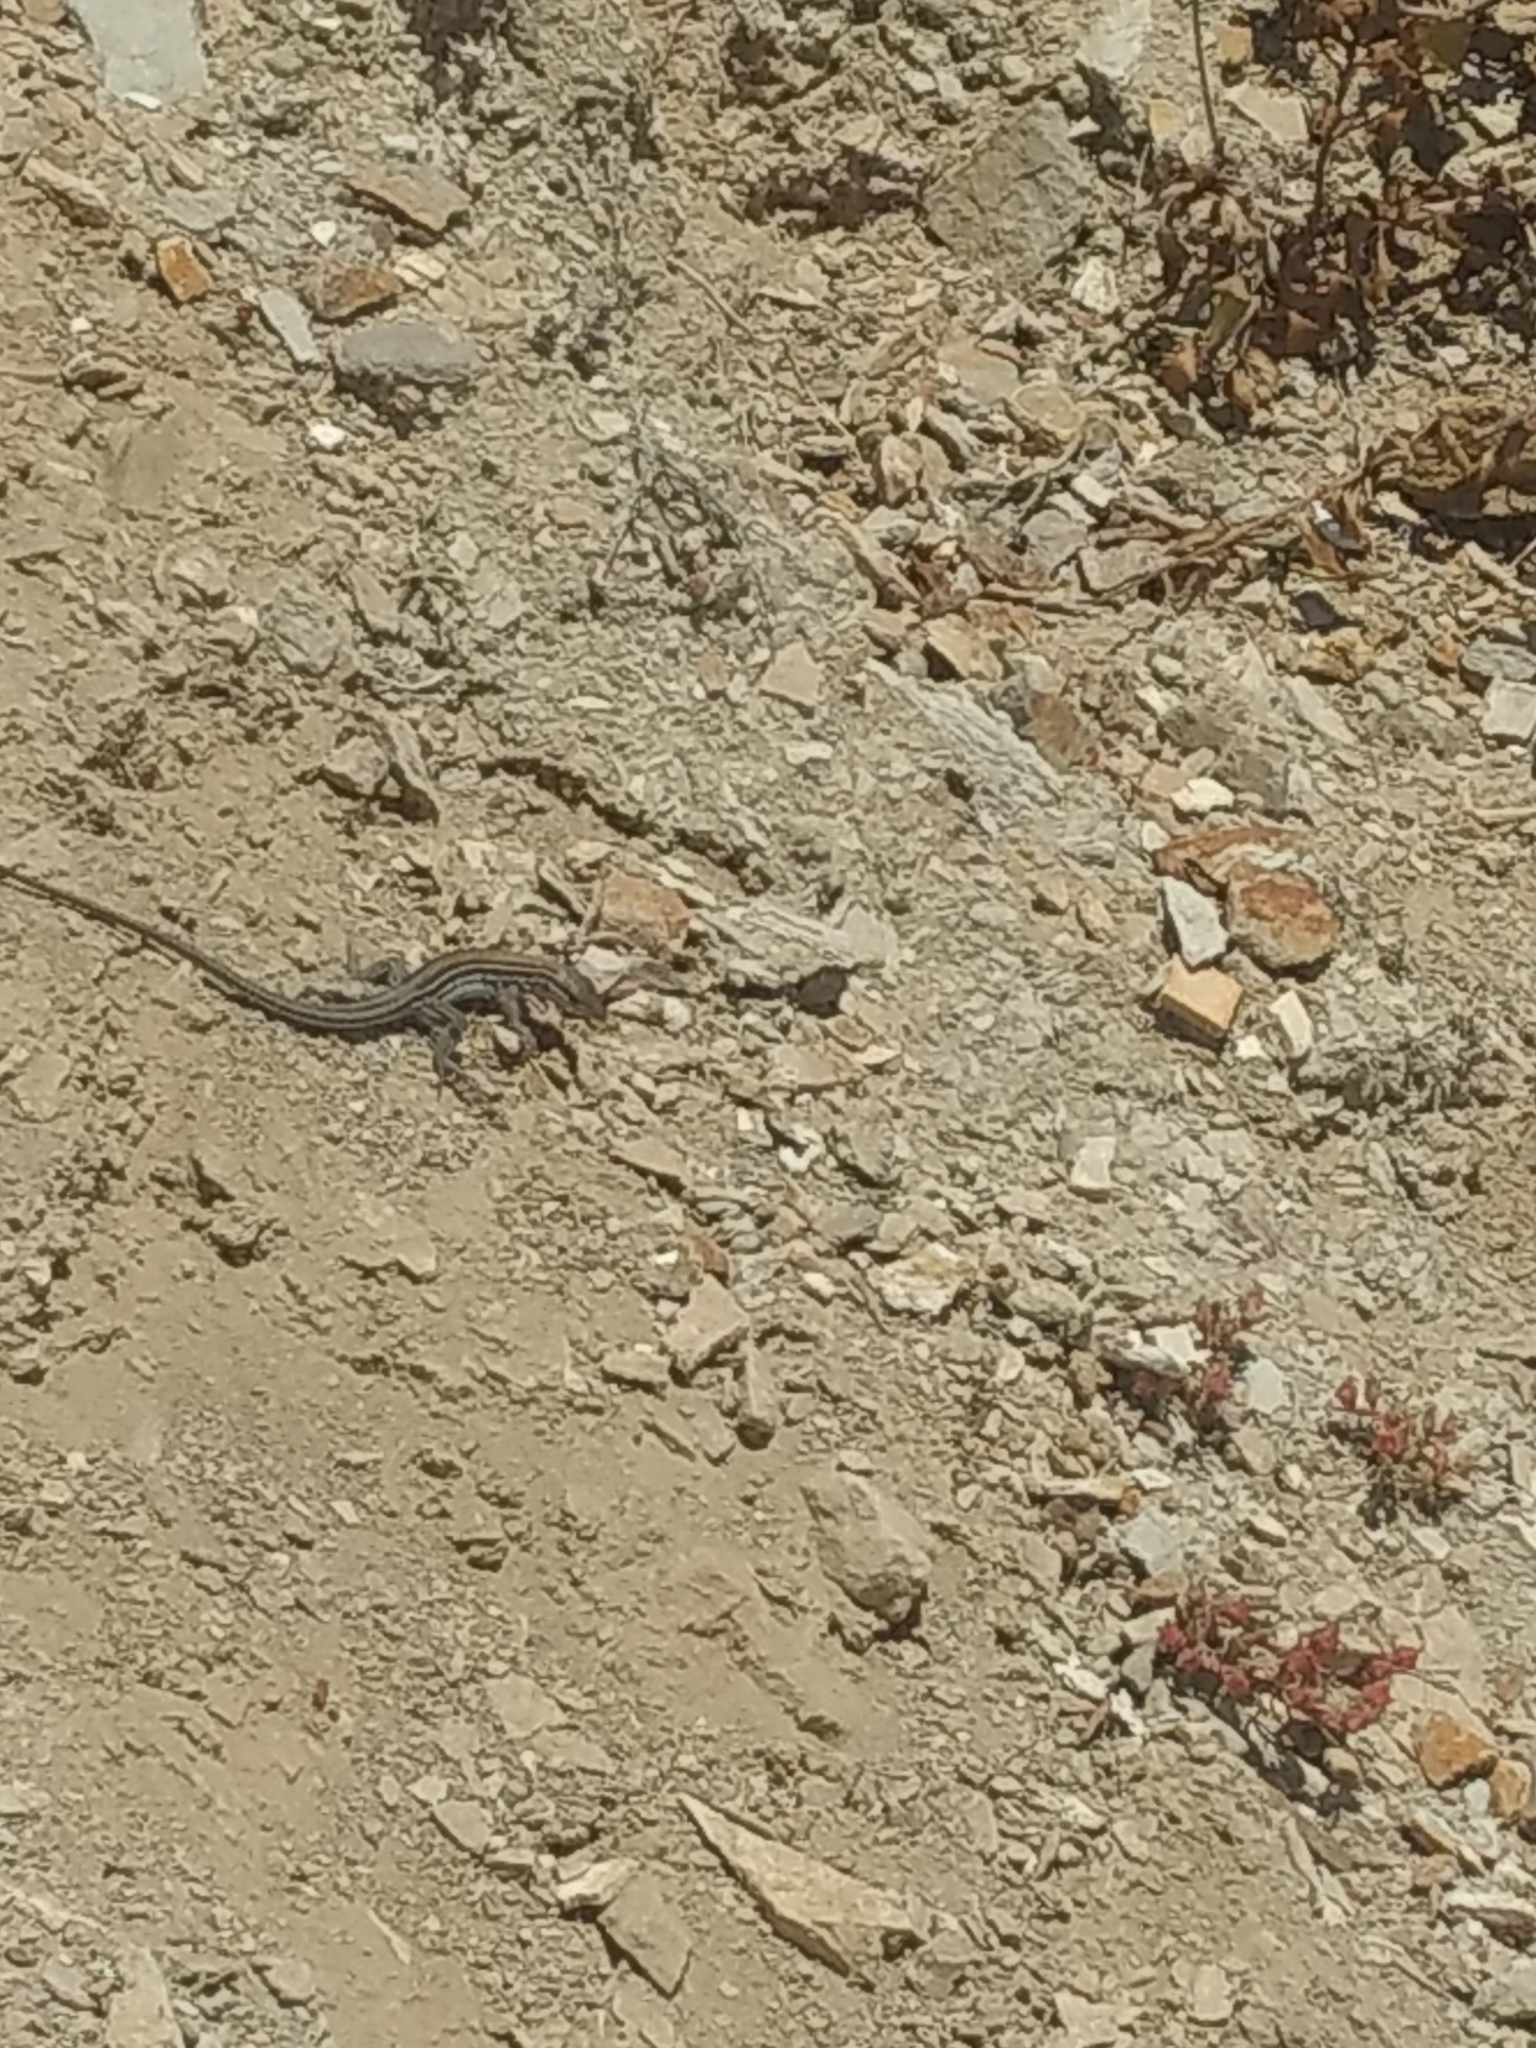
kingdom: Animalia
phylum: Chordata
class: Squamata
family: Teiidae
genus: Aspidoscelis
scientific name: Aspidoscelis hyperythrus
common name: Orange-throated race-runner
